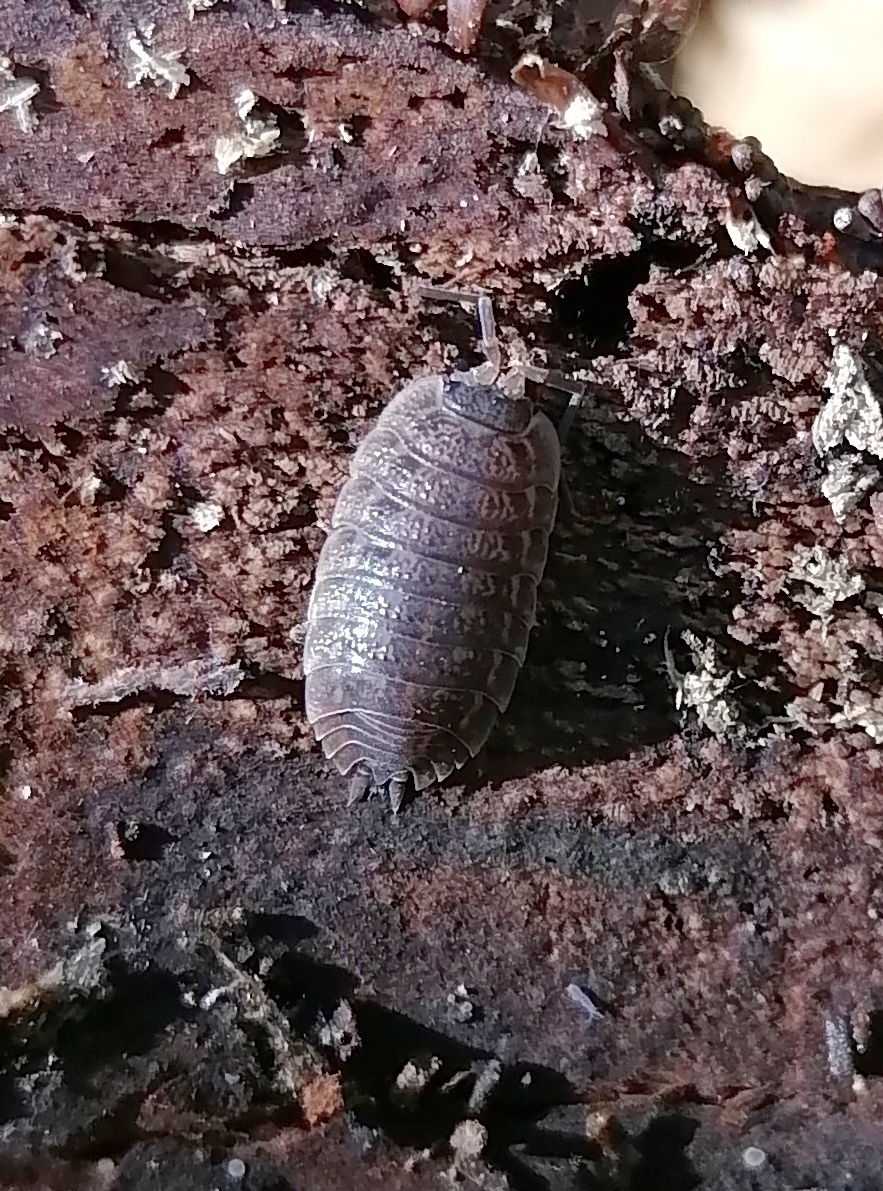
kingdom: Animalia
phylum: Arthropoda
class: Malacostraca
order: Isopoda
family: Trachelipodidae
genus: Trachelipus
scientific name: Trachelipus rathkii
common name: Isopod
